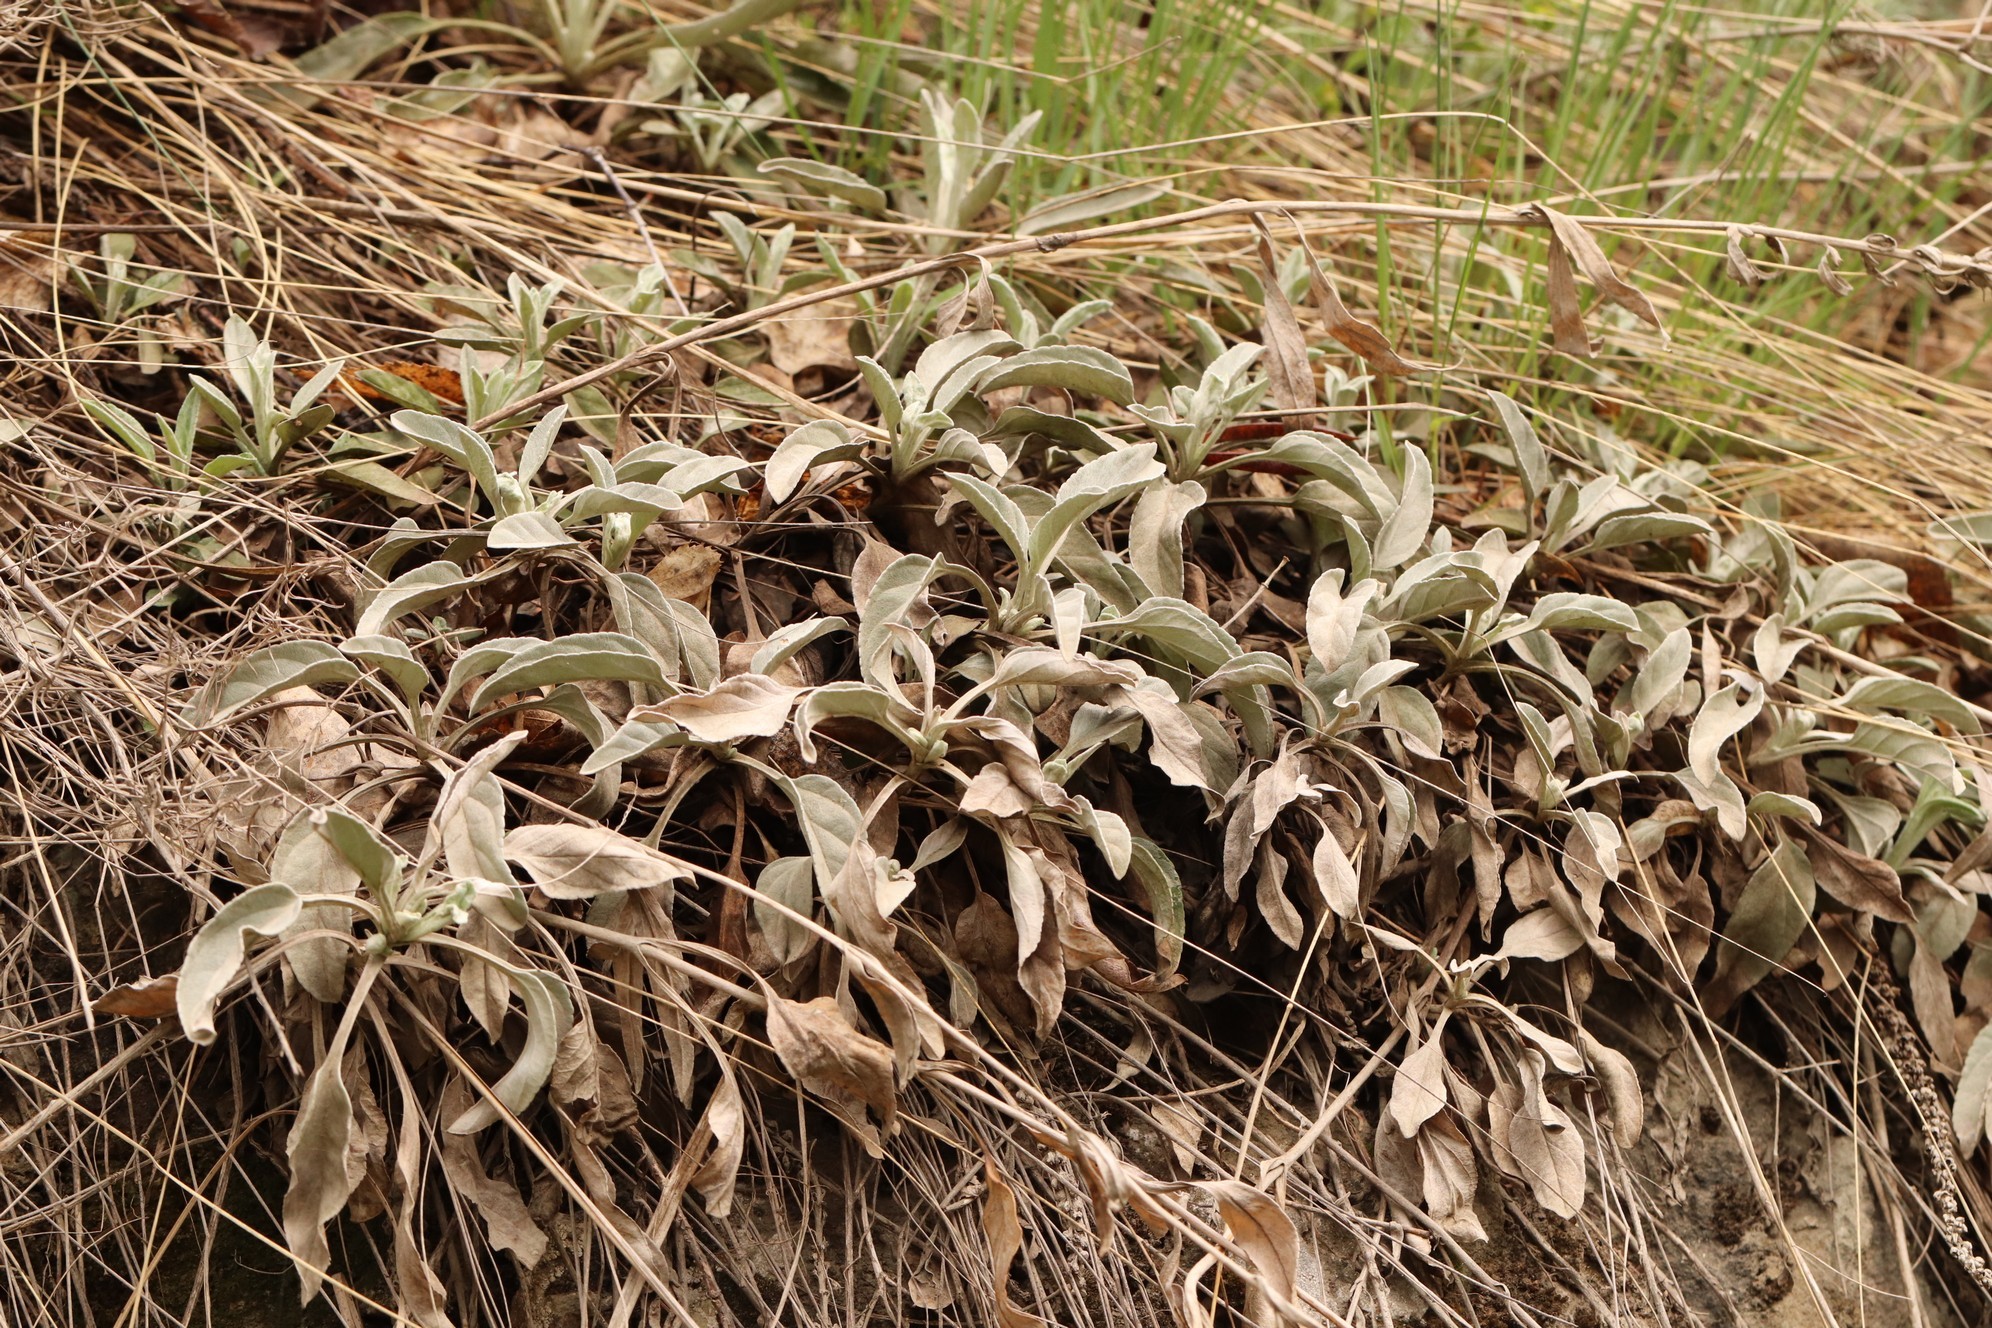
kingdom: Plantae
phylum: Tracheophyta
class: Magnoliopsida
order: Lamiales
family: Plantaginaceae
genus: Veronica
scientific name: Veronica incana
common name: Silver speedwell
